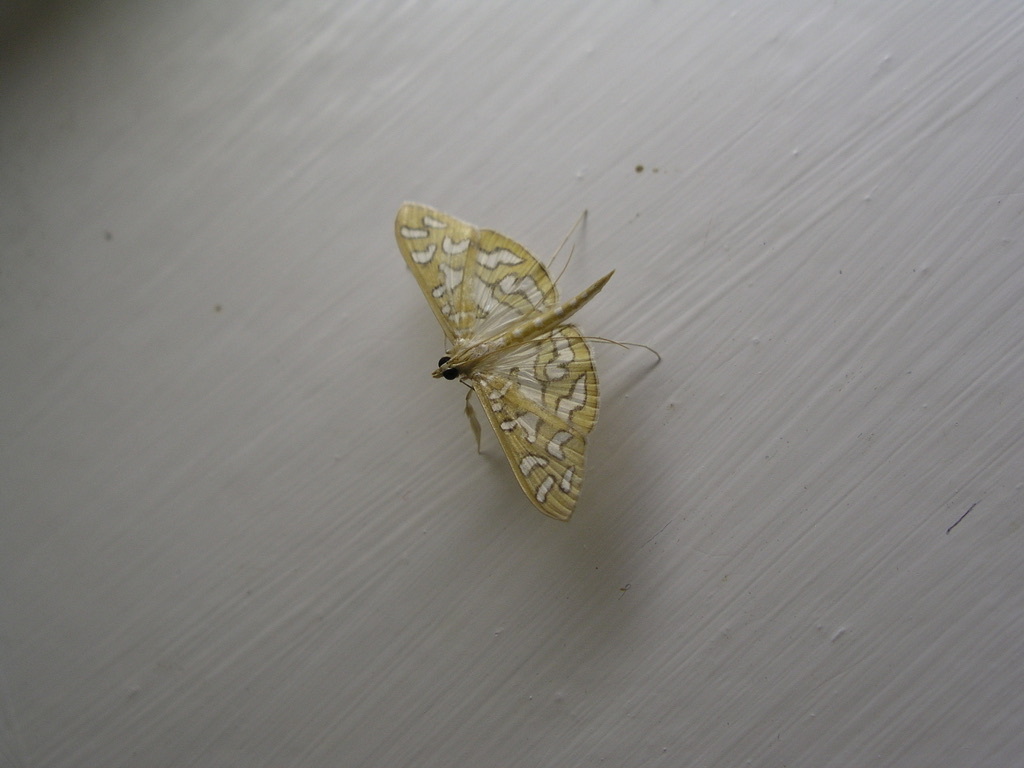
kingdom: Animalia
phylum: Arthropoda
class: Insecta
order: Lepidoptera
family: Crambidae
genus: Nausinoe
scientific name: Nausinoe perspectata
